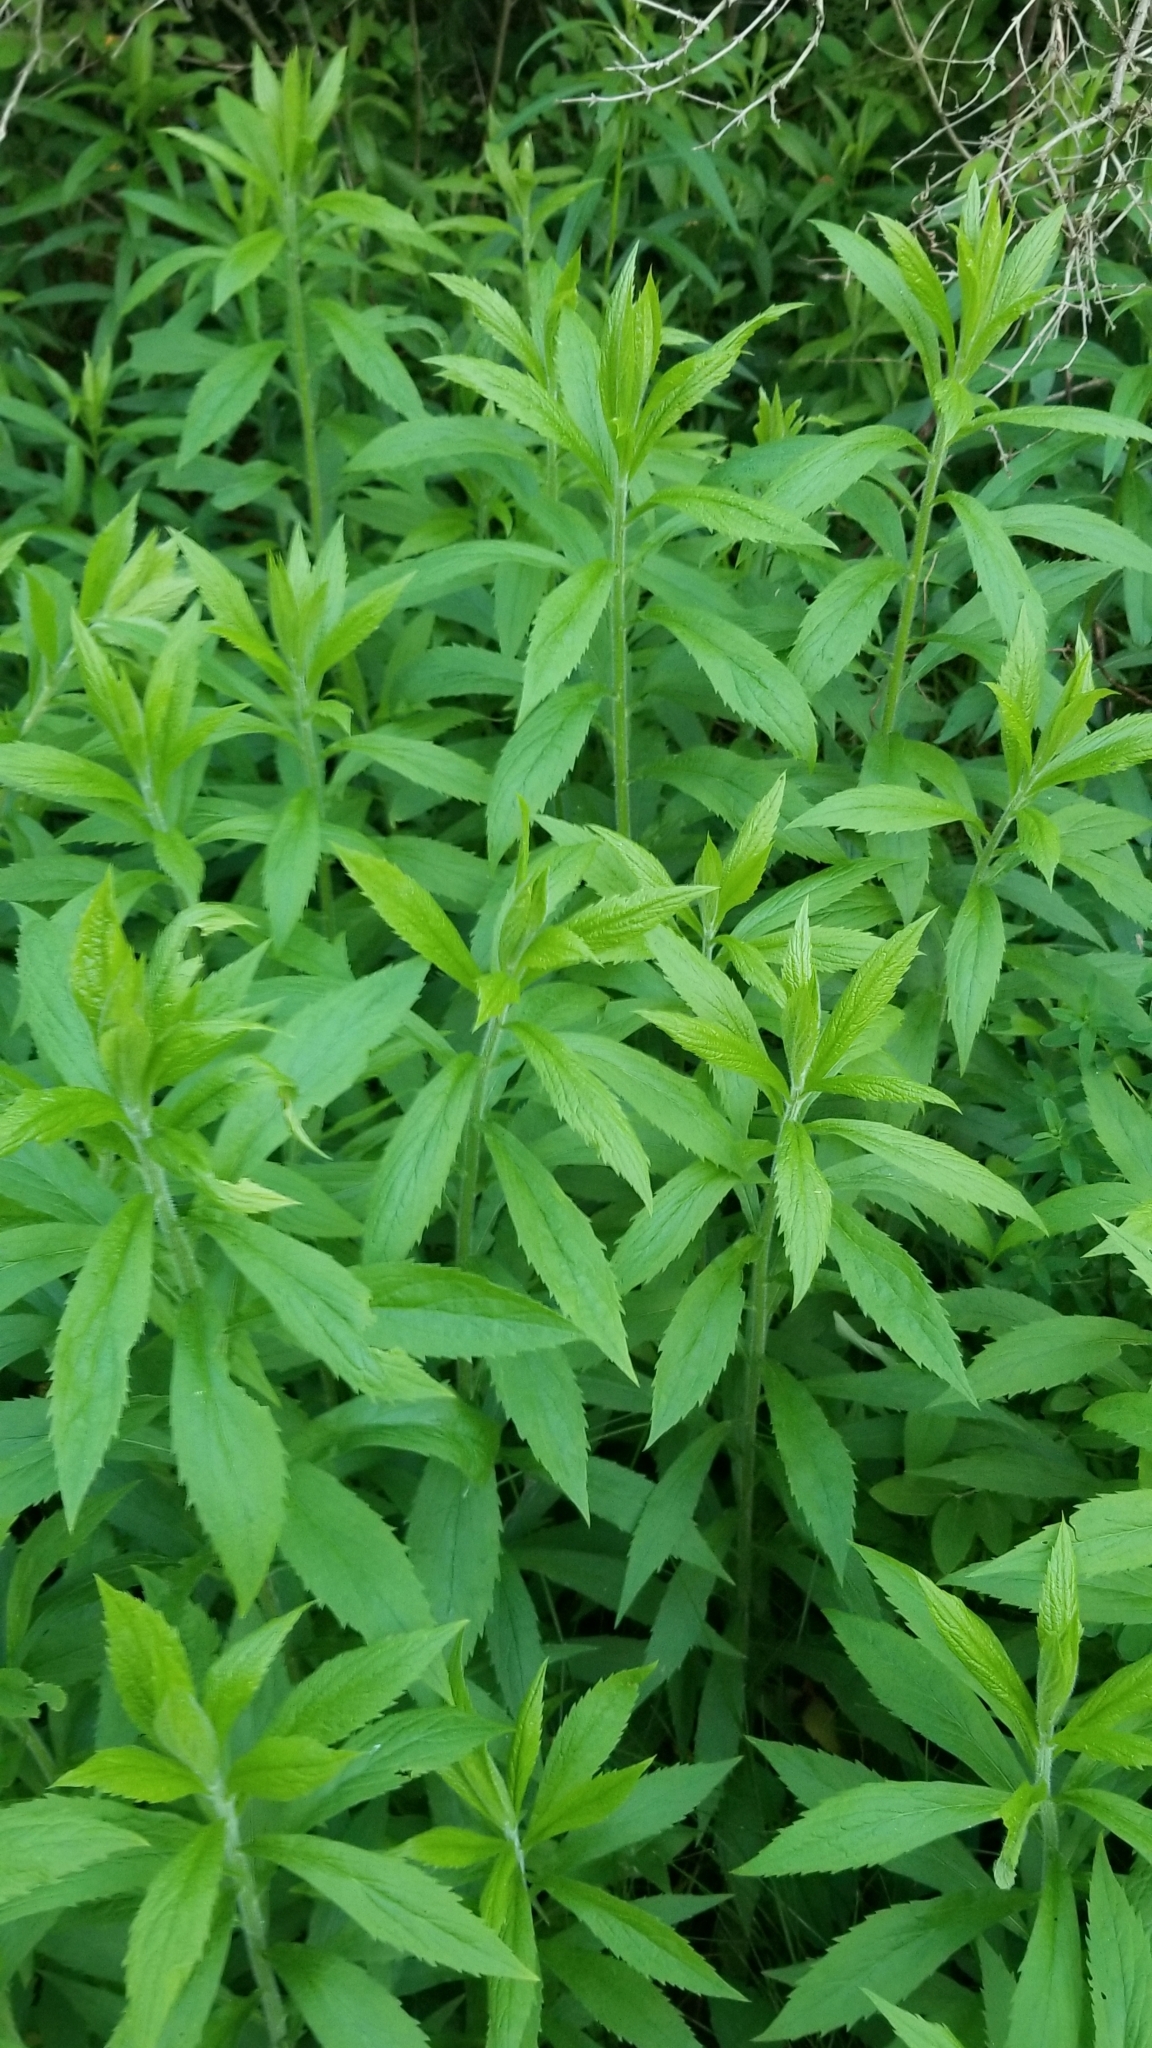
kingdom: Plantae
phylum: Tracheophyta
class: Magnoliopsida
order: Asterales
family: Asteraceae
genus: Solidago
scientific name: Solidago rugosa
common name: Rough-stemmed goldenrod
